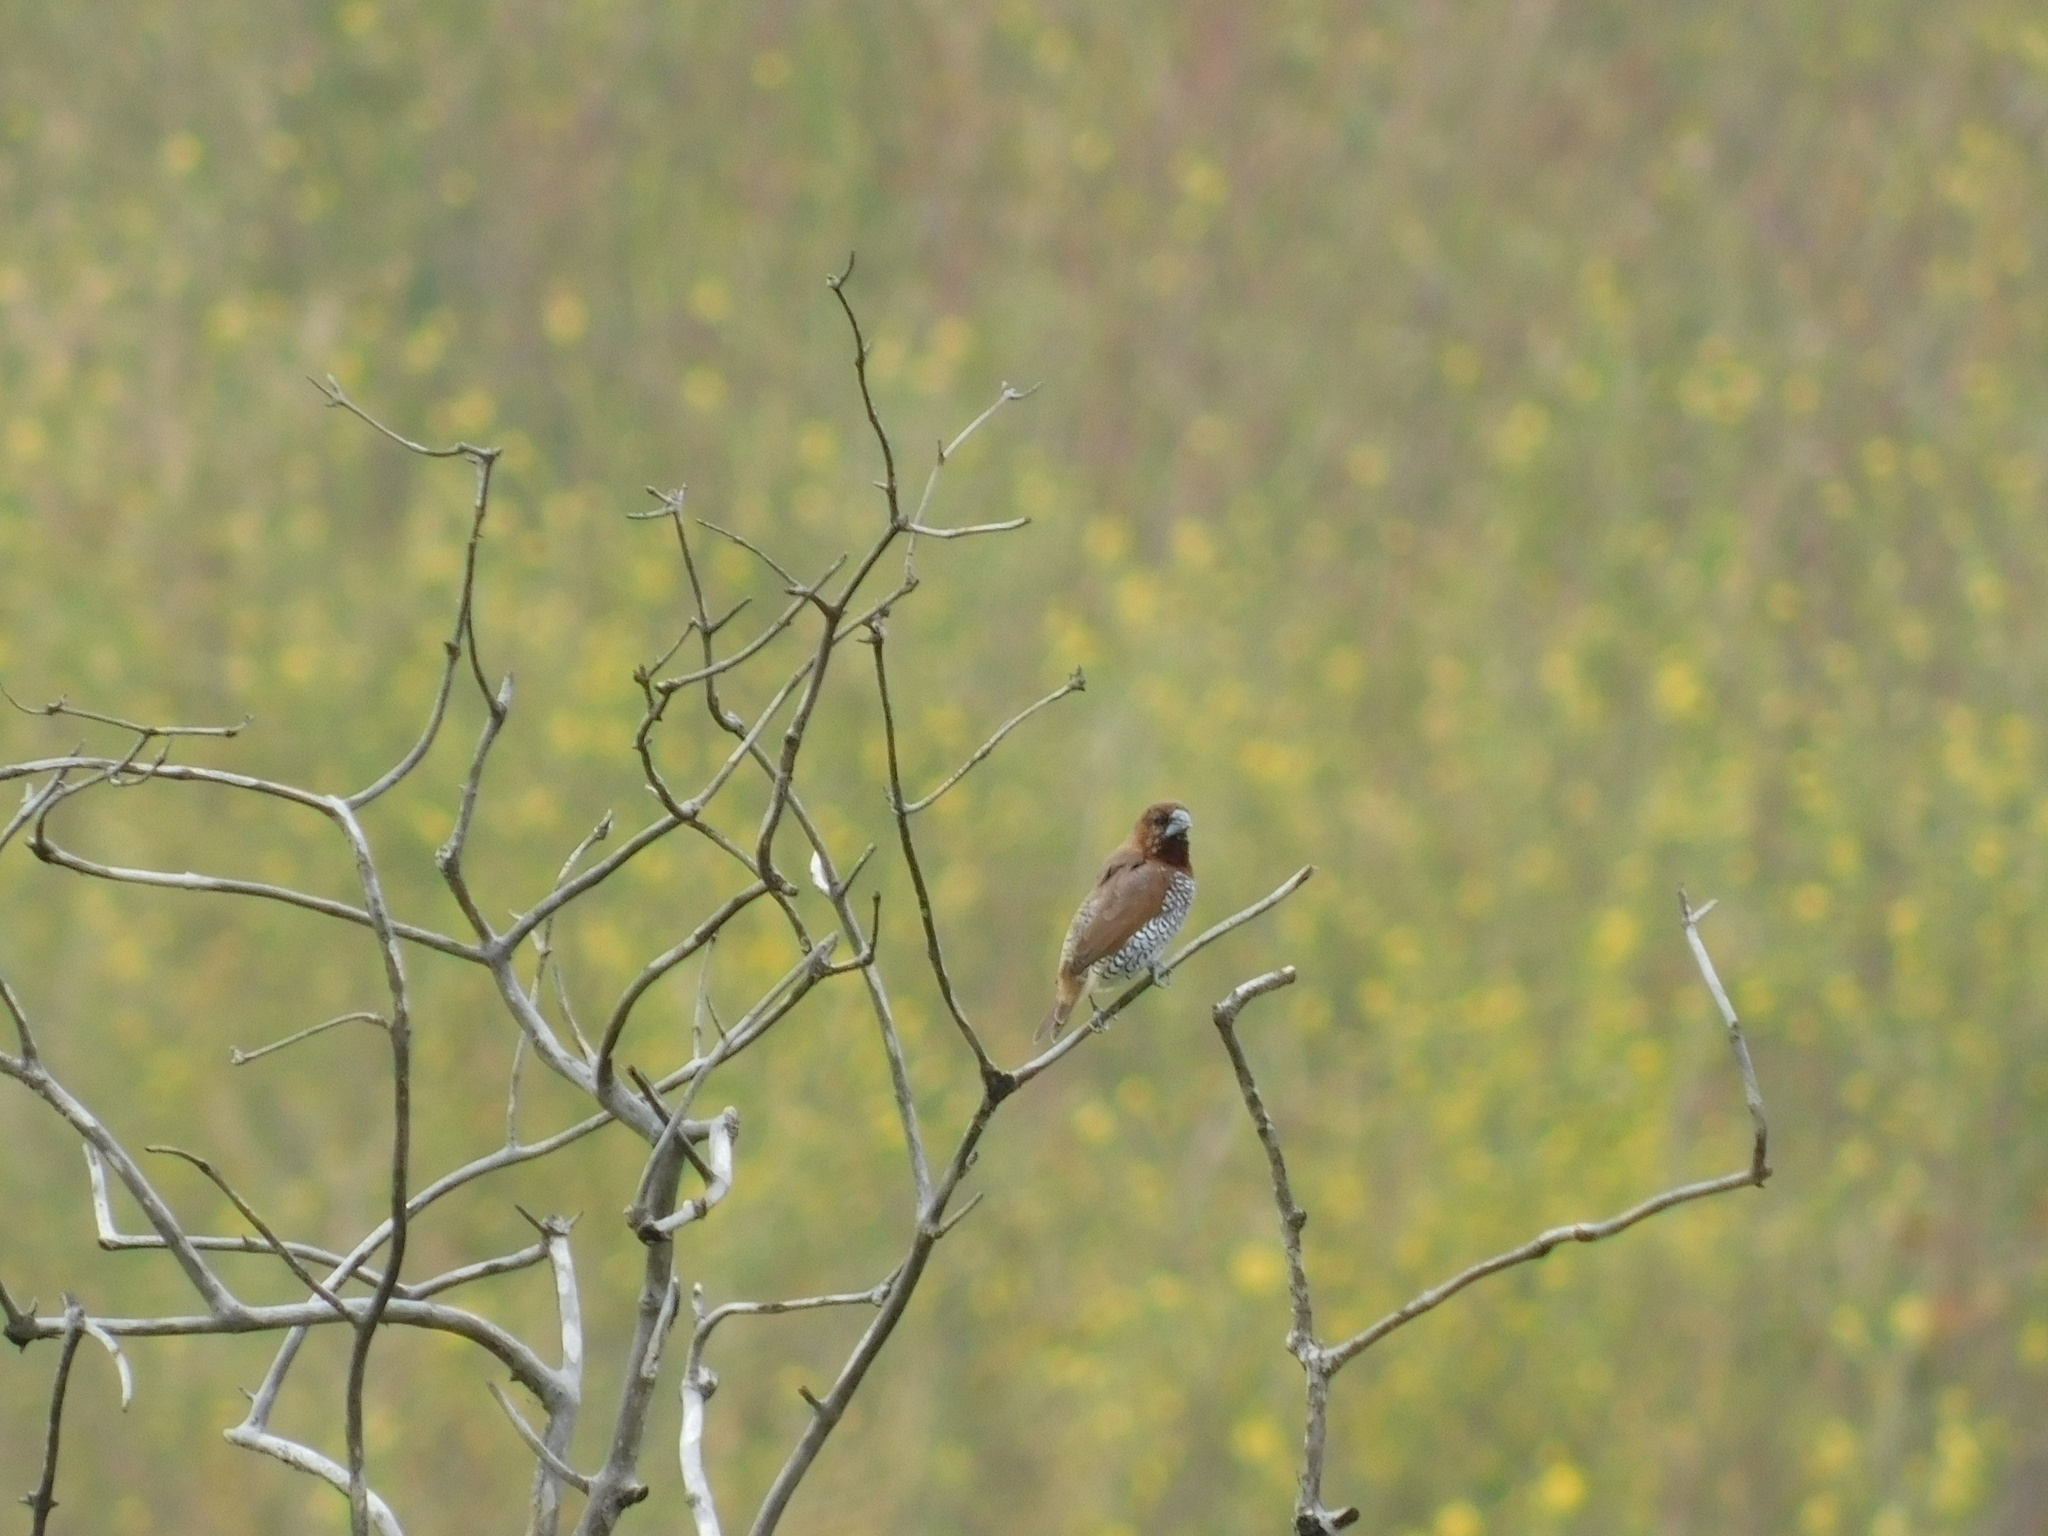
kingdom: Animalia
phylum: Chordata
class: Aves
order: Passeriformes
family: Estrildidae
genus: Lonchura
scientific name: Lonchura punctulata
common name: Scaly-breasted munia
